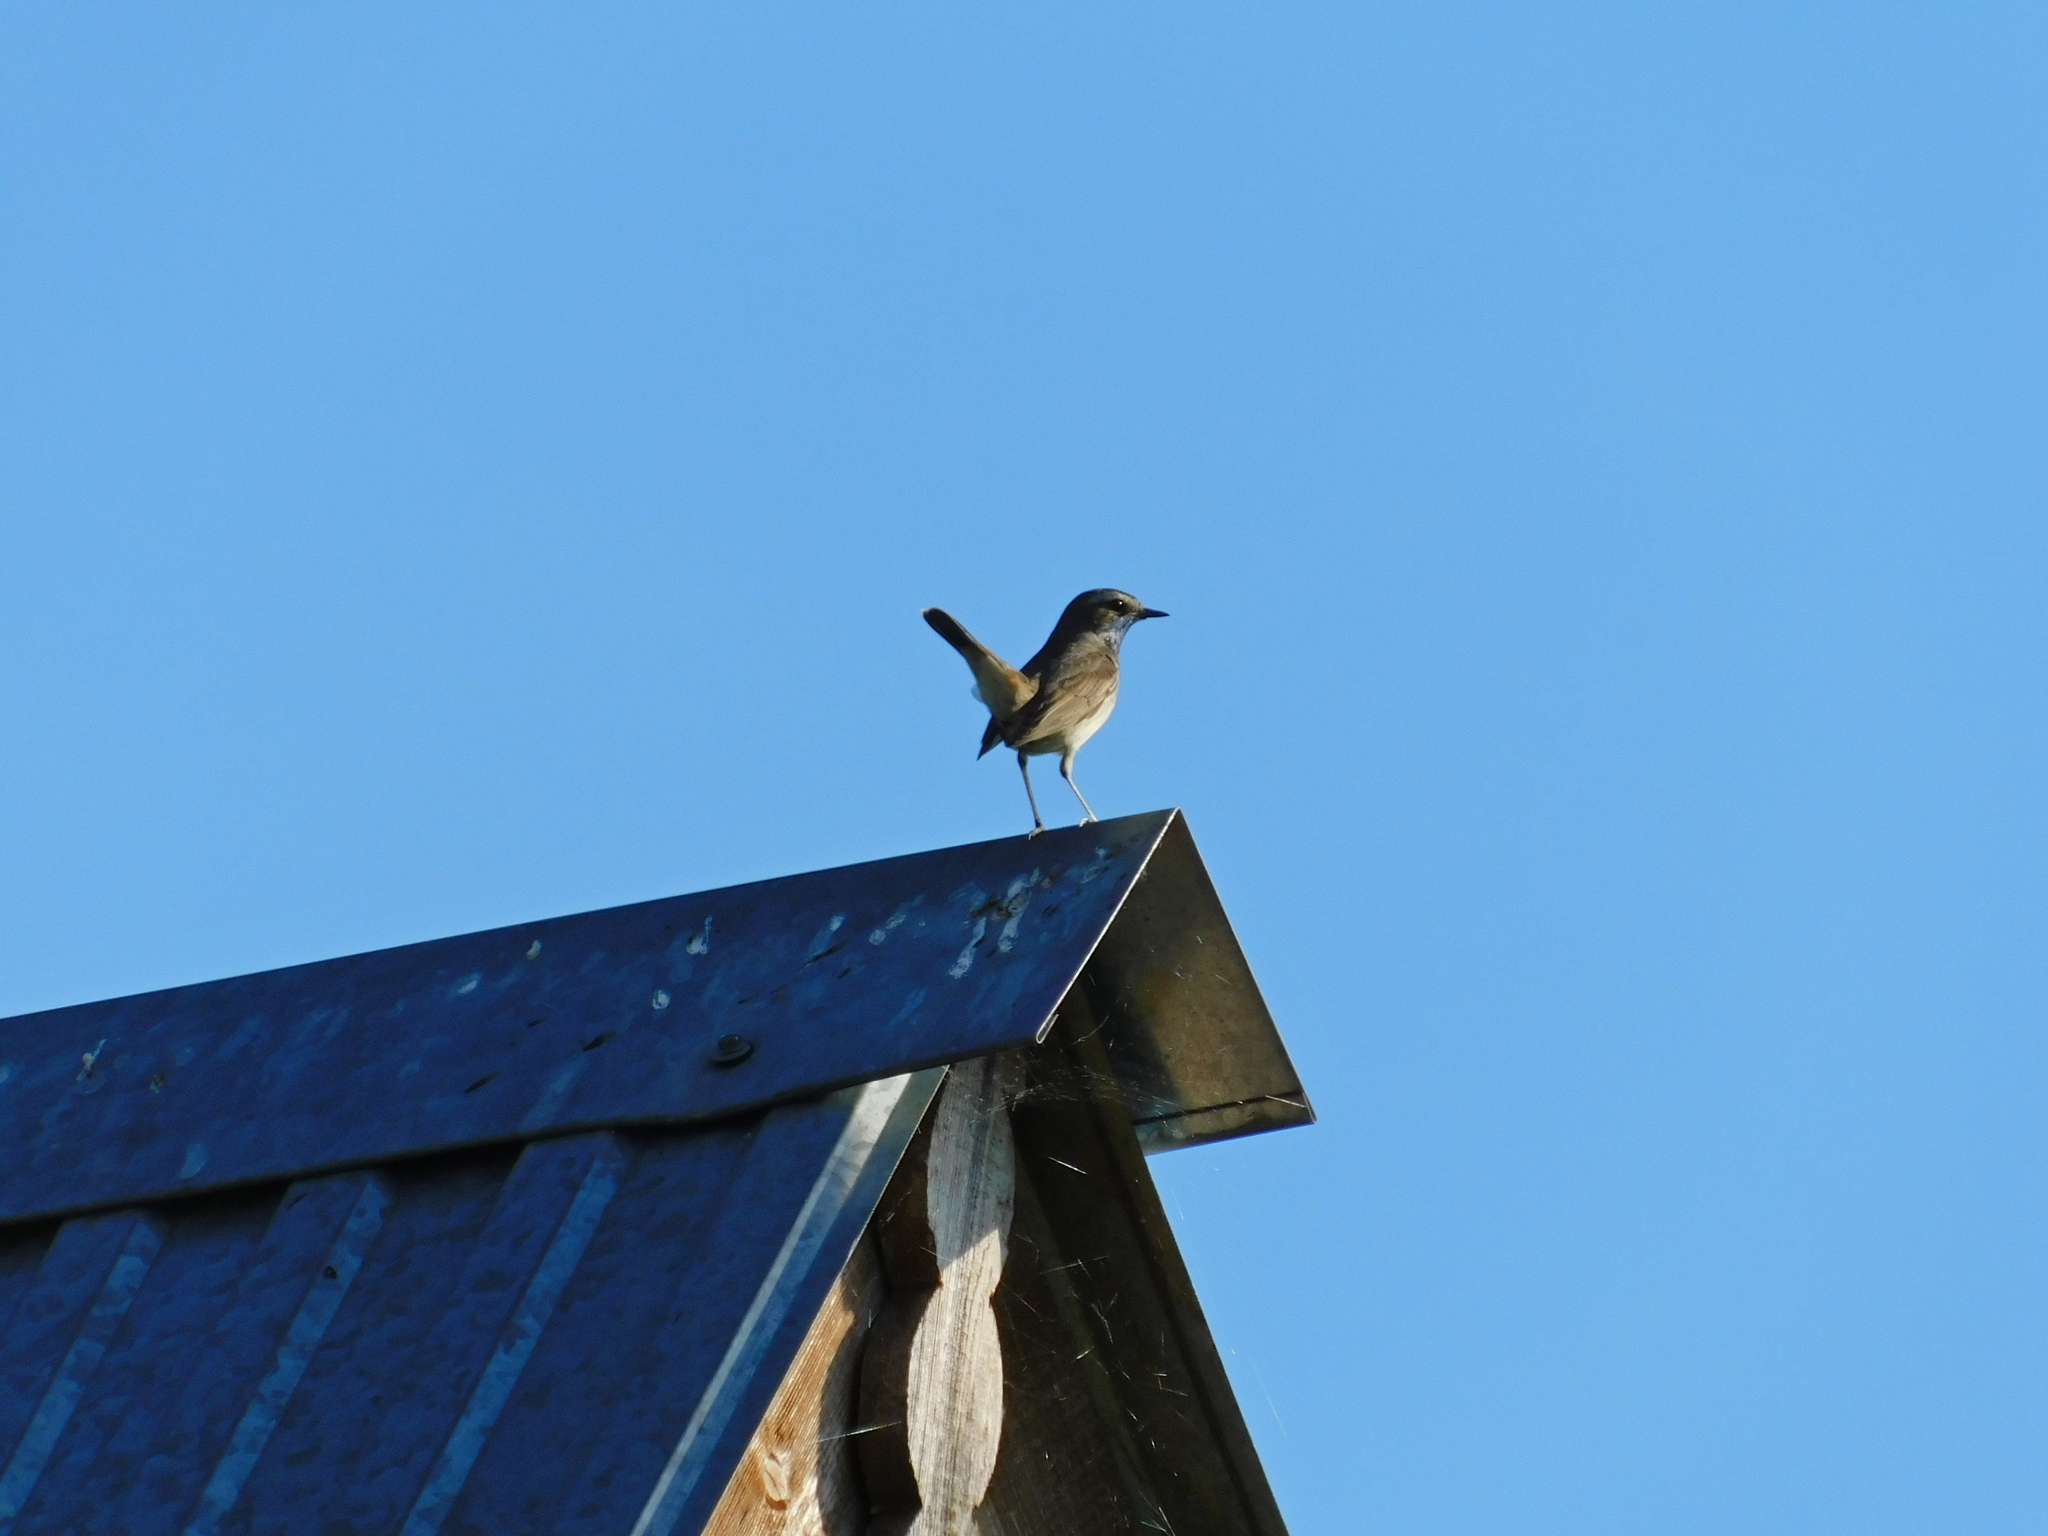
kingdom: Animalia
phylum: Chordata
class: Aves
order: Passeriformes
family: Muscicapidae
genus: Luscinia
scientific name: Luscinia svecica
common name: Bluethroat
